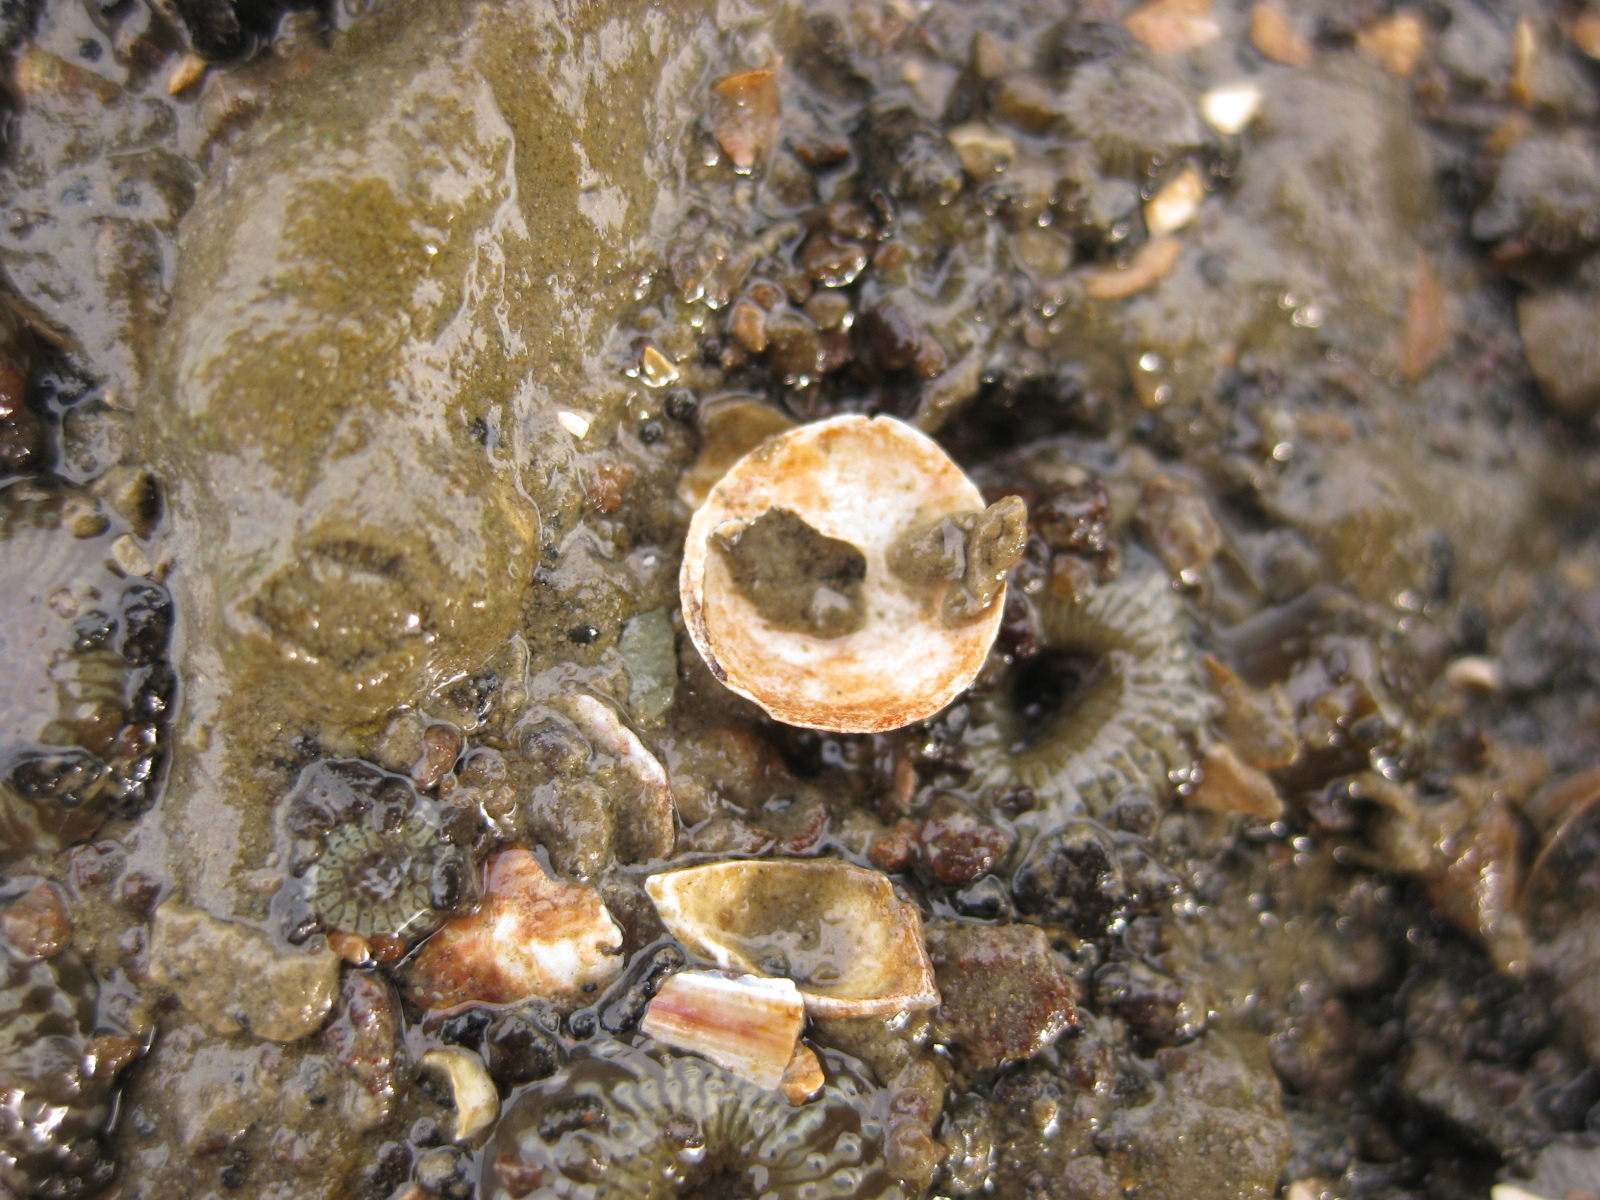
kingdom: Animalia
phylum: Mollusca
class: Gastropoda
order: Littorinimorpha
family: Calyptraeidae
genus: Sigapatella
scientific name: Sigapatella tenuis
